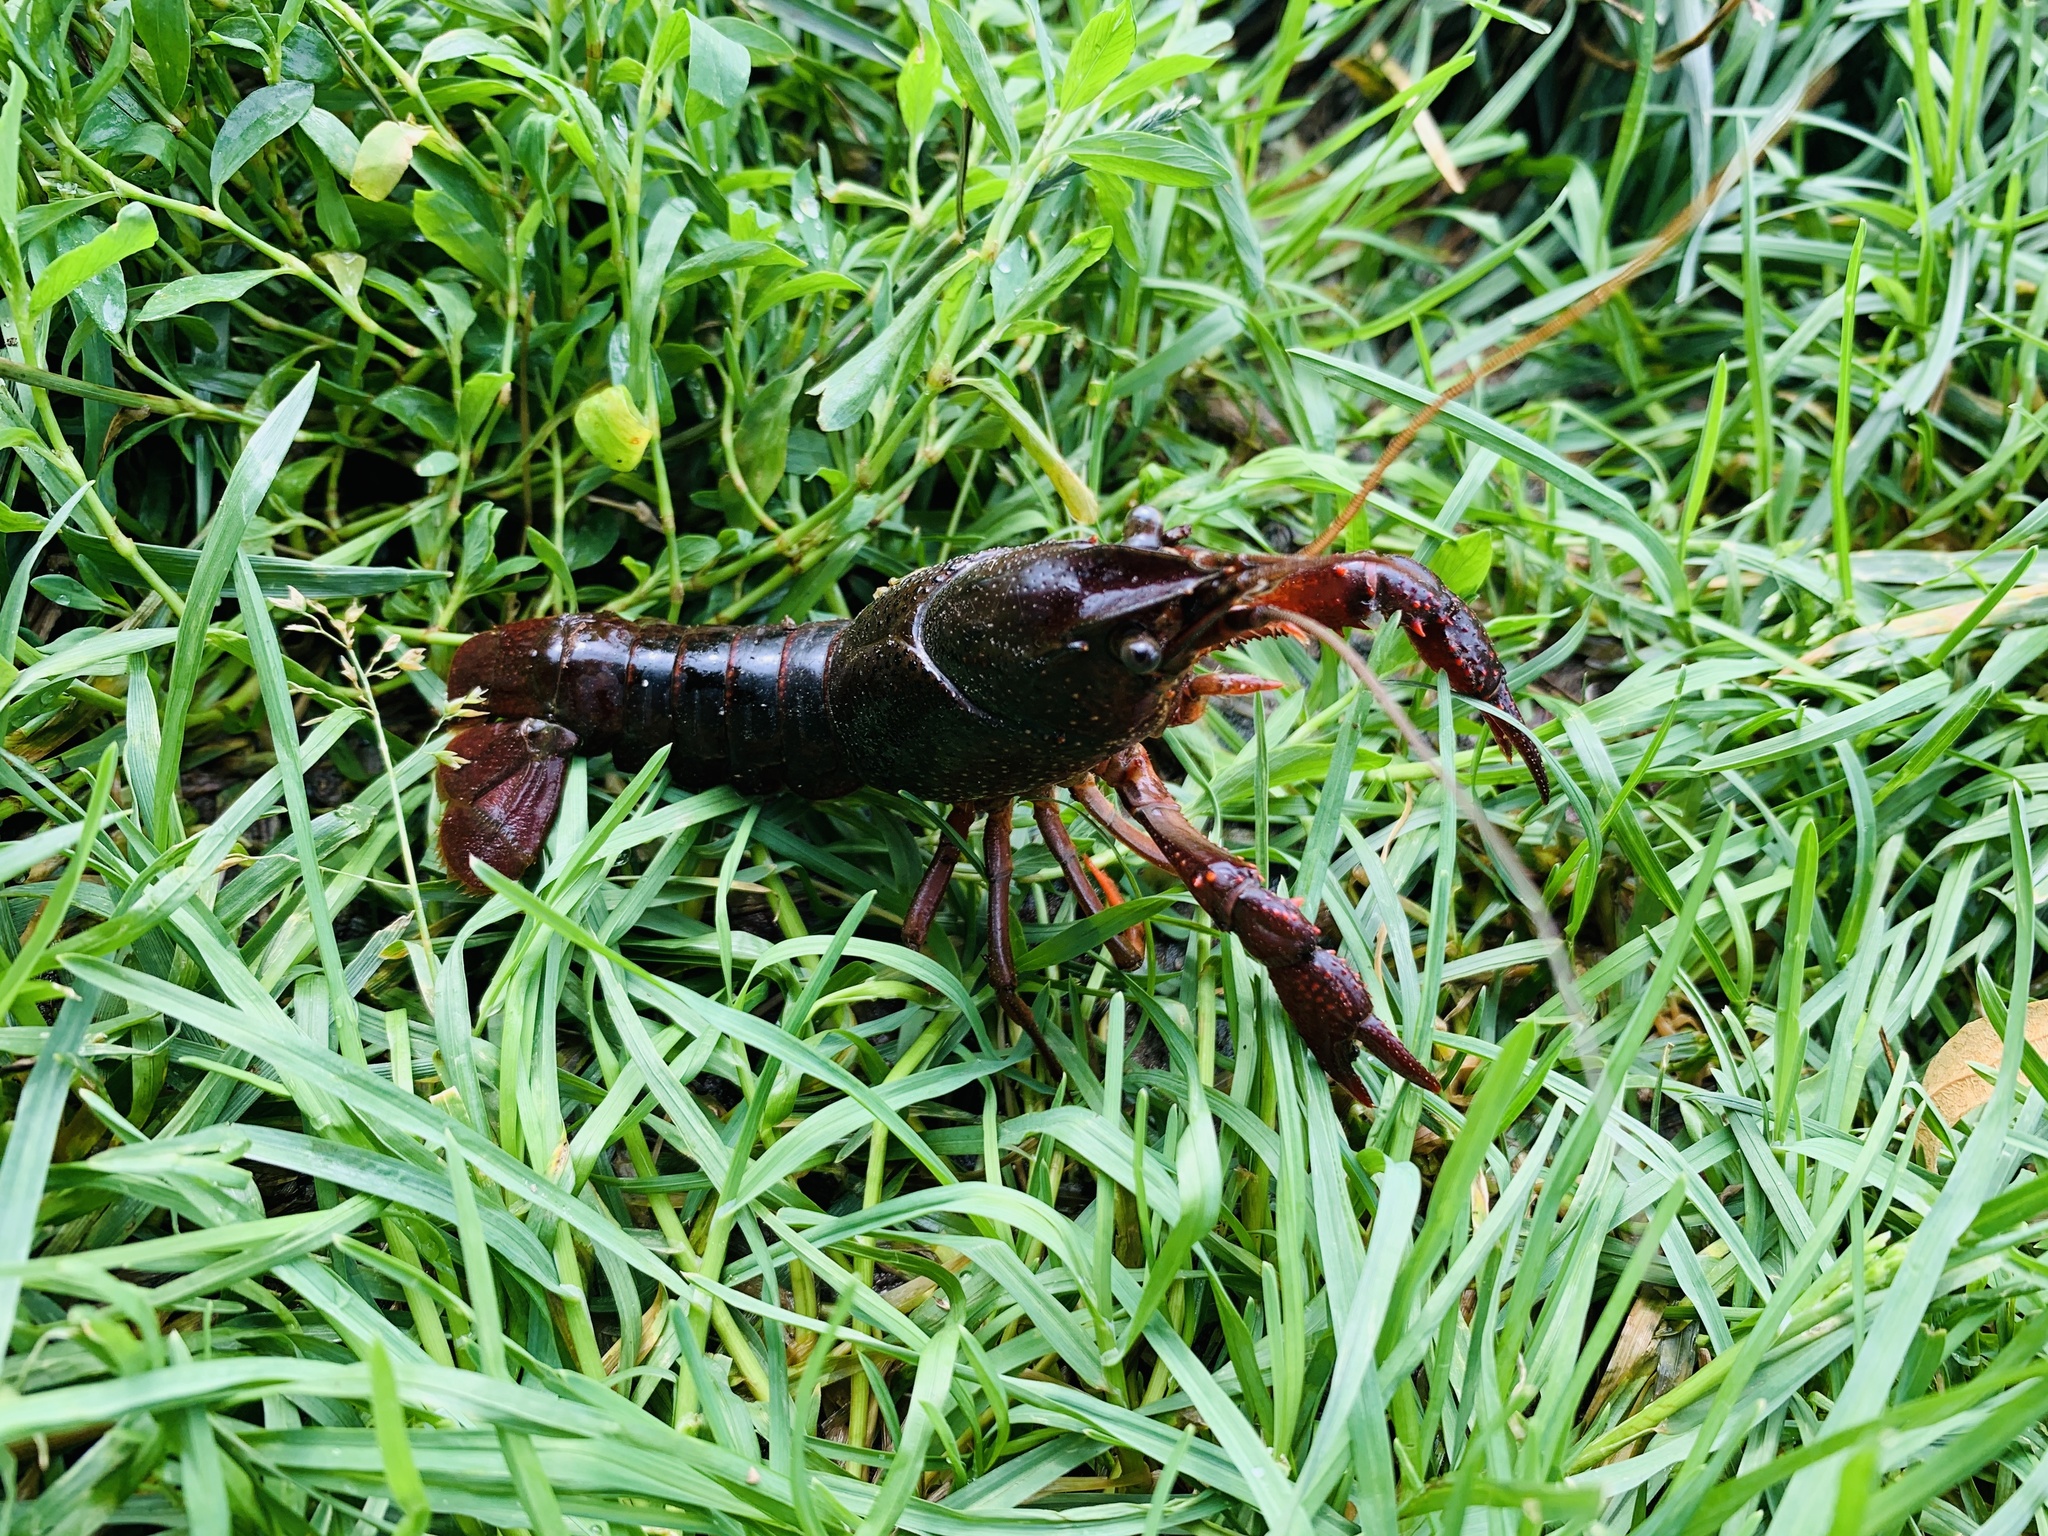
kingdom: Animalia
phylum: Arthropoda
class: Malacostraca
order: Decapoda
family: Cambaridae
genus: Procambarus
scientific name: Procambarus clarkii
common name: Red swamp crayfish
